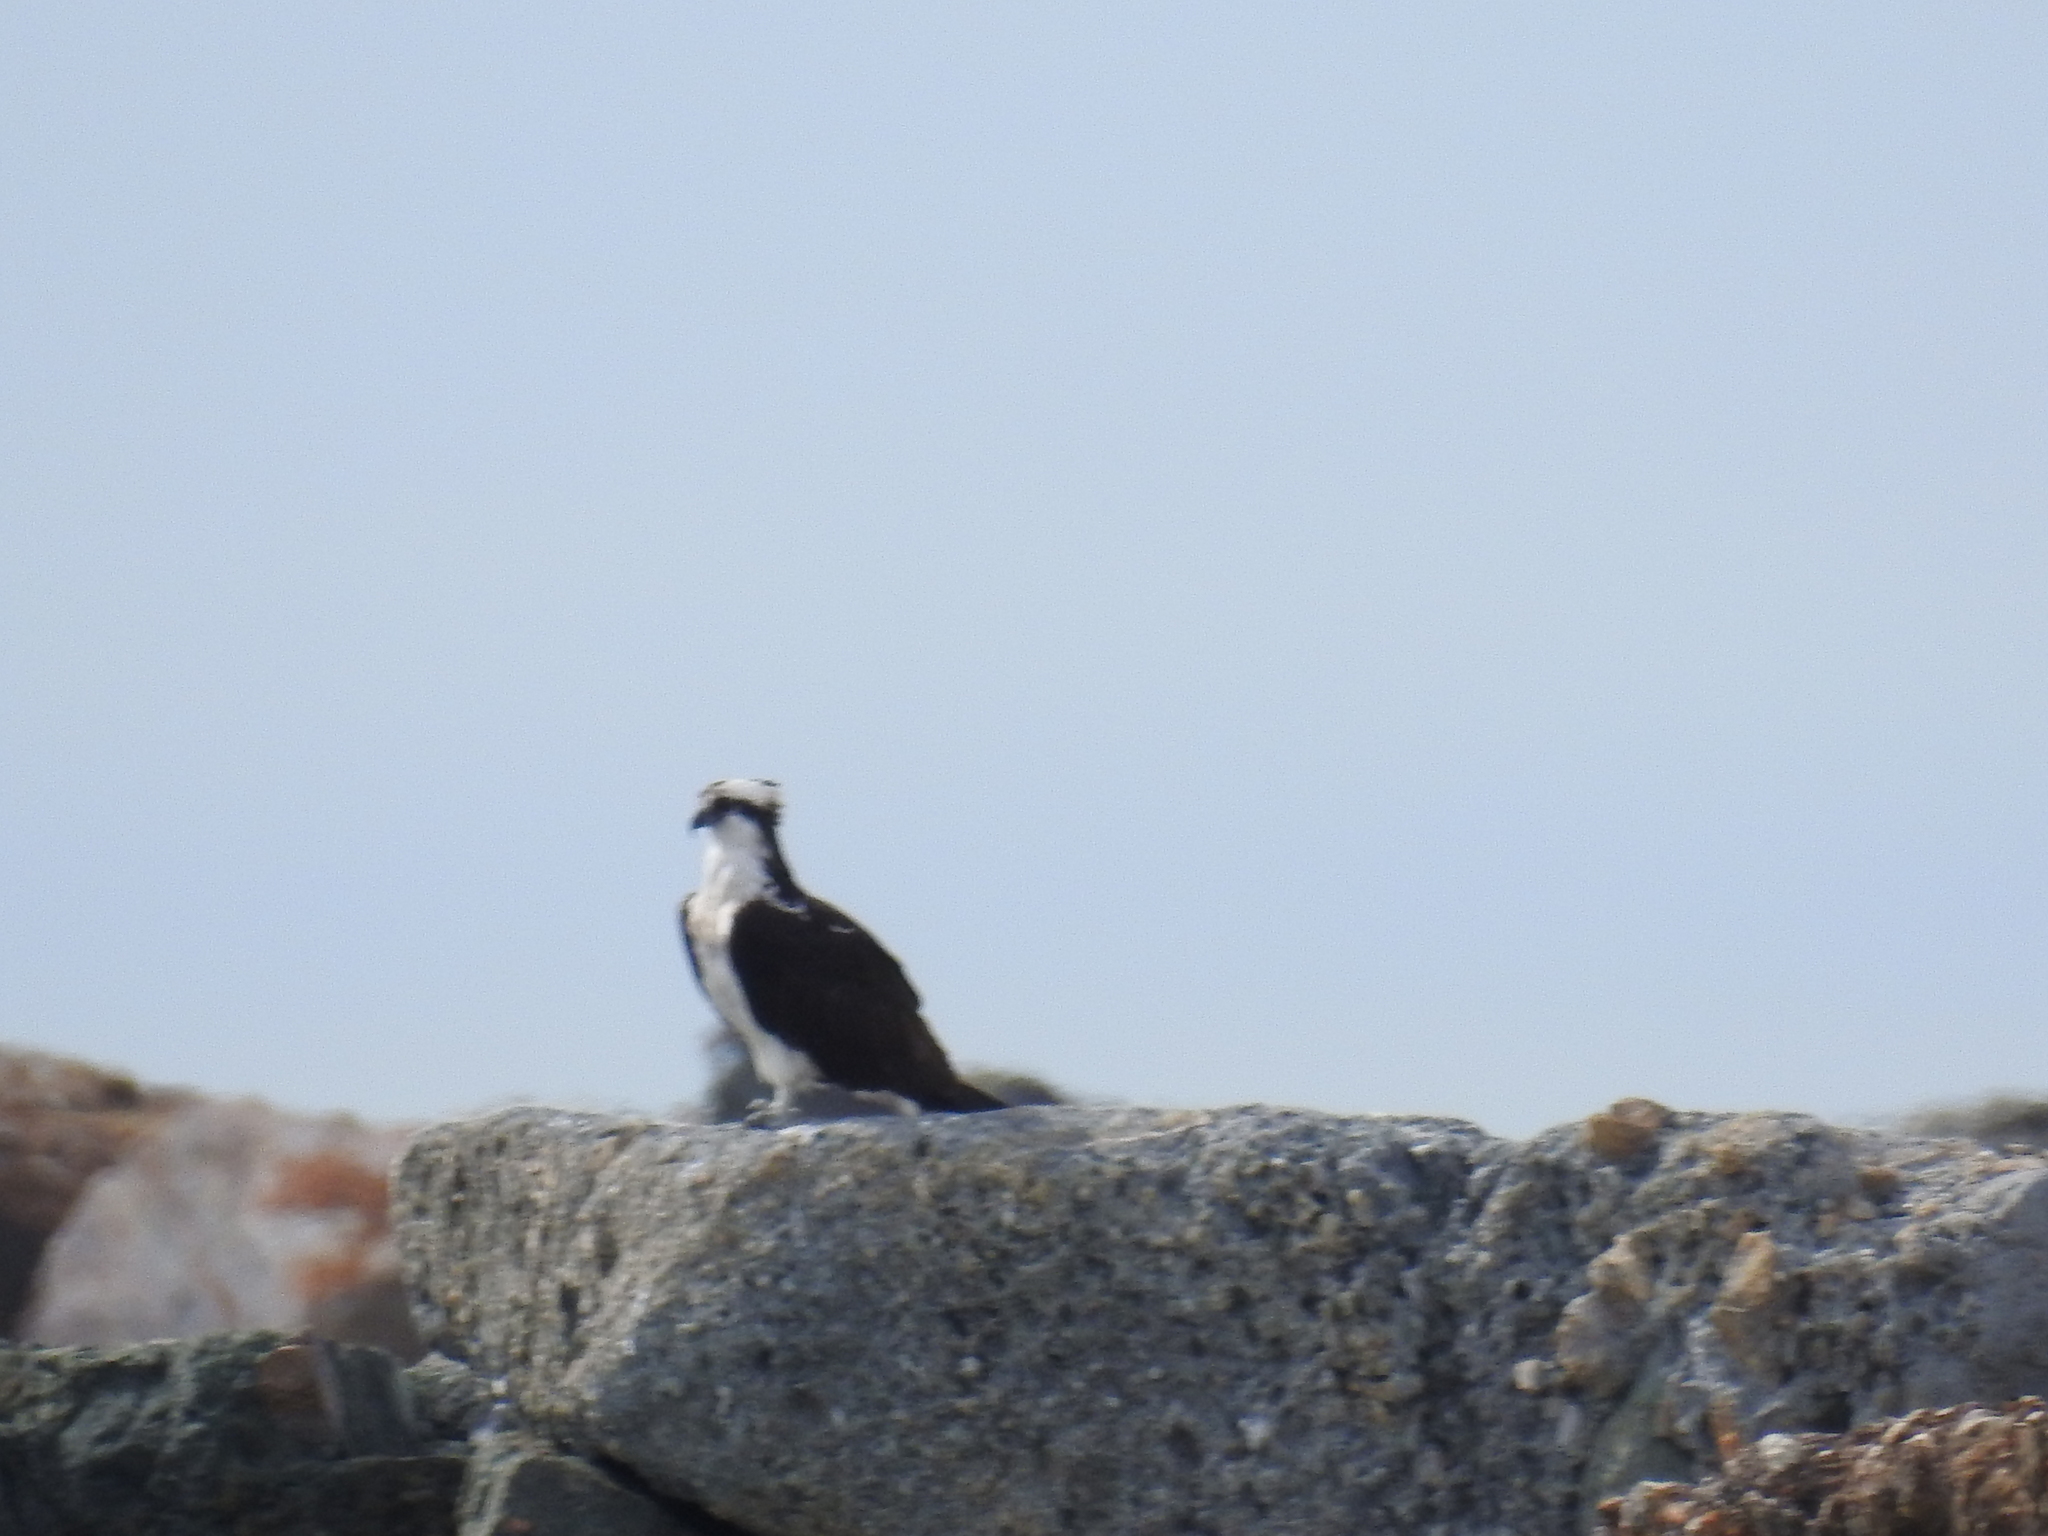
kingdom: Animalia
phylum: Chordata
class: Aves
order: Accipitriformes
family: Pandionidae
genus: Pandion
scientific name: Pandion haliaetus
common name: Osprey
